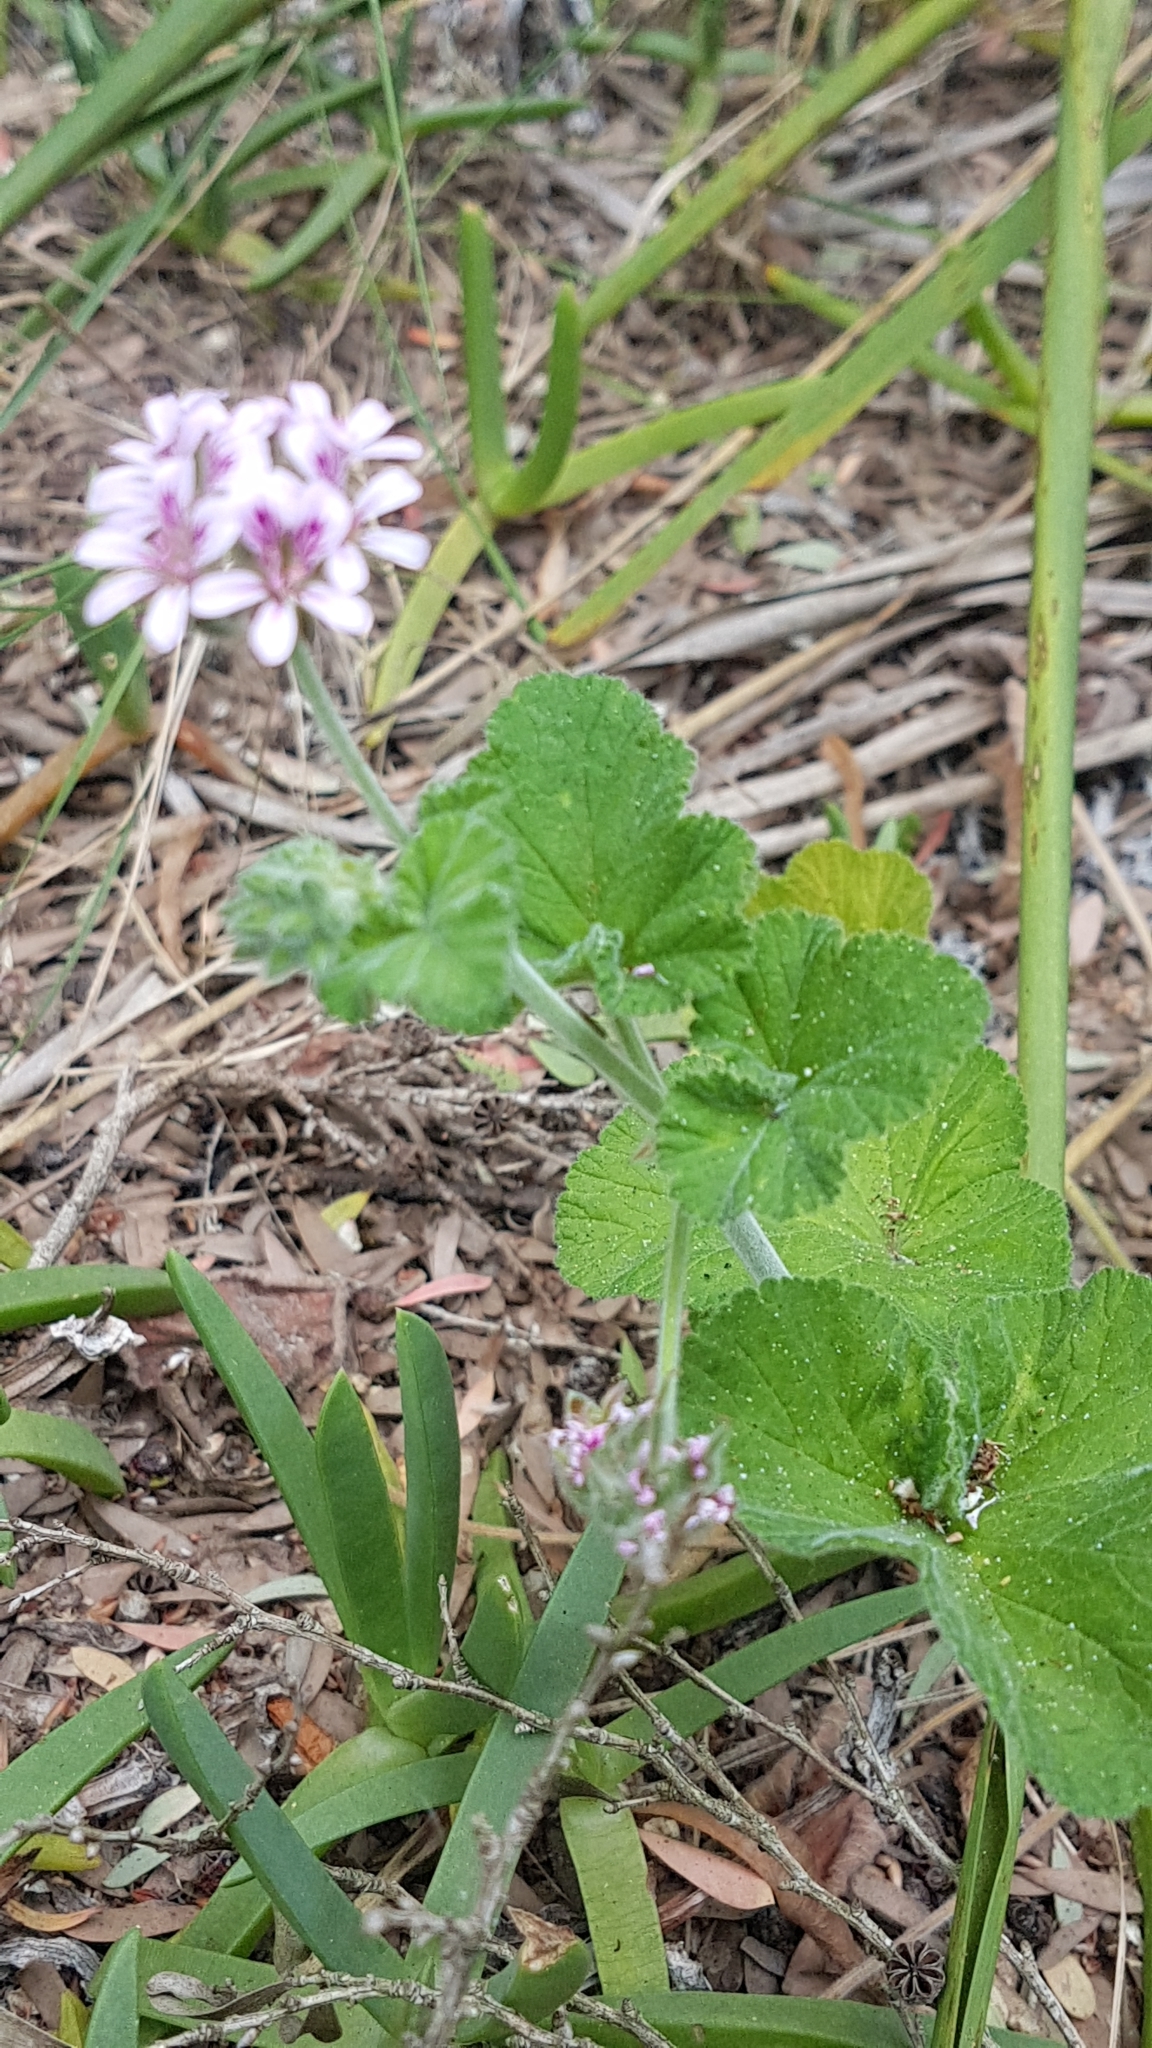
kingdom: Plantae
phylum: Tracheophyta
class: Magnoliopsida
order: Geraniales
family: Geraniaceae
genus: Pelargonium
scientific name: Pelargonium australe
